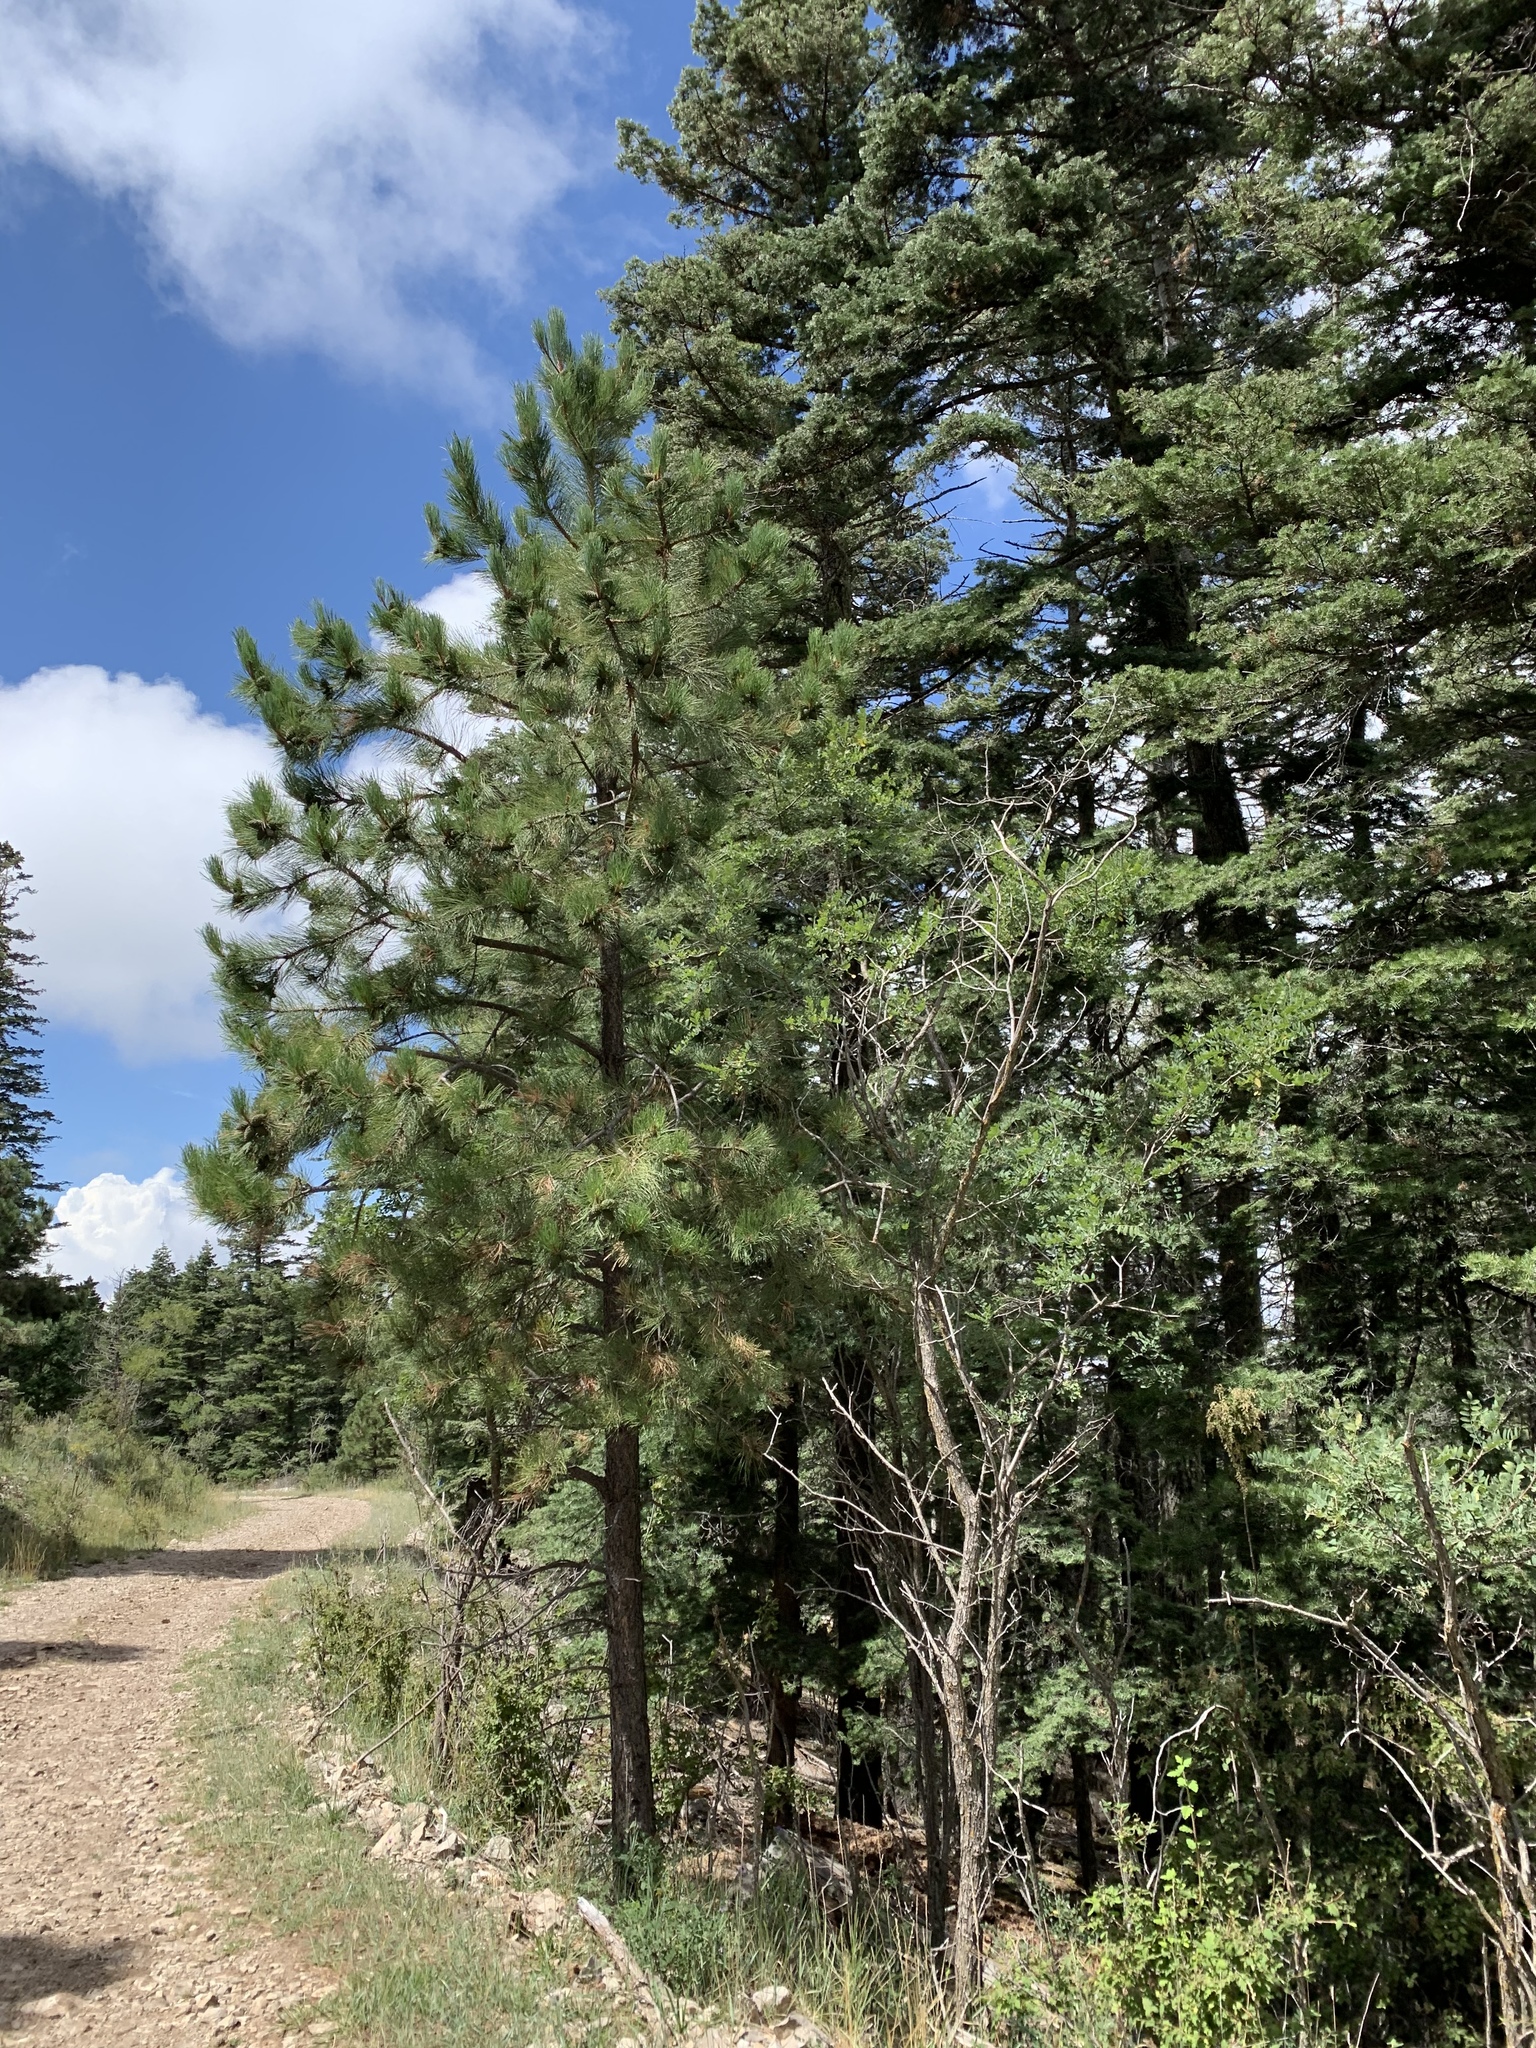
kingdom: Plantae
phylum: Tracheophyta
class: Pinopsida
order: Pinales
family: Pinaceae
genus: Pinus
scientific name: Pinus strobiformis
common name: Southwestern white pine
